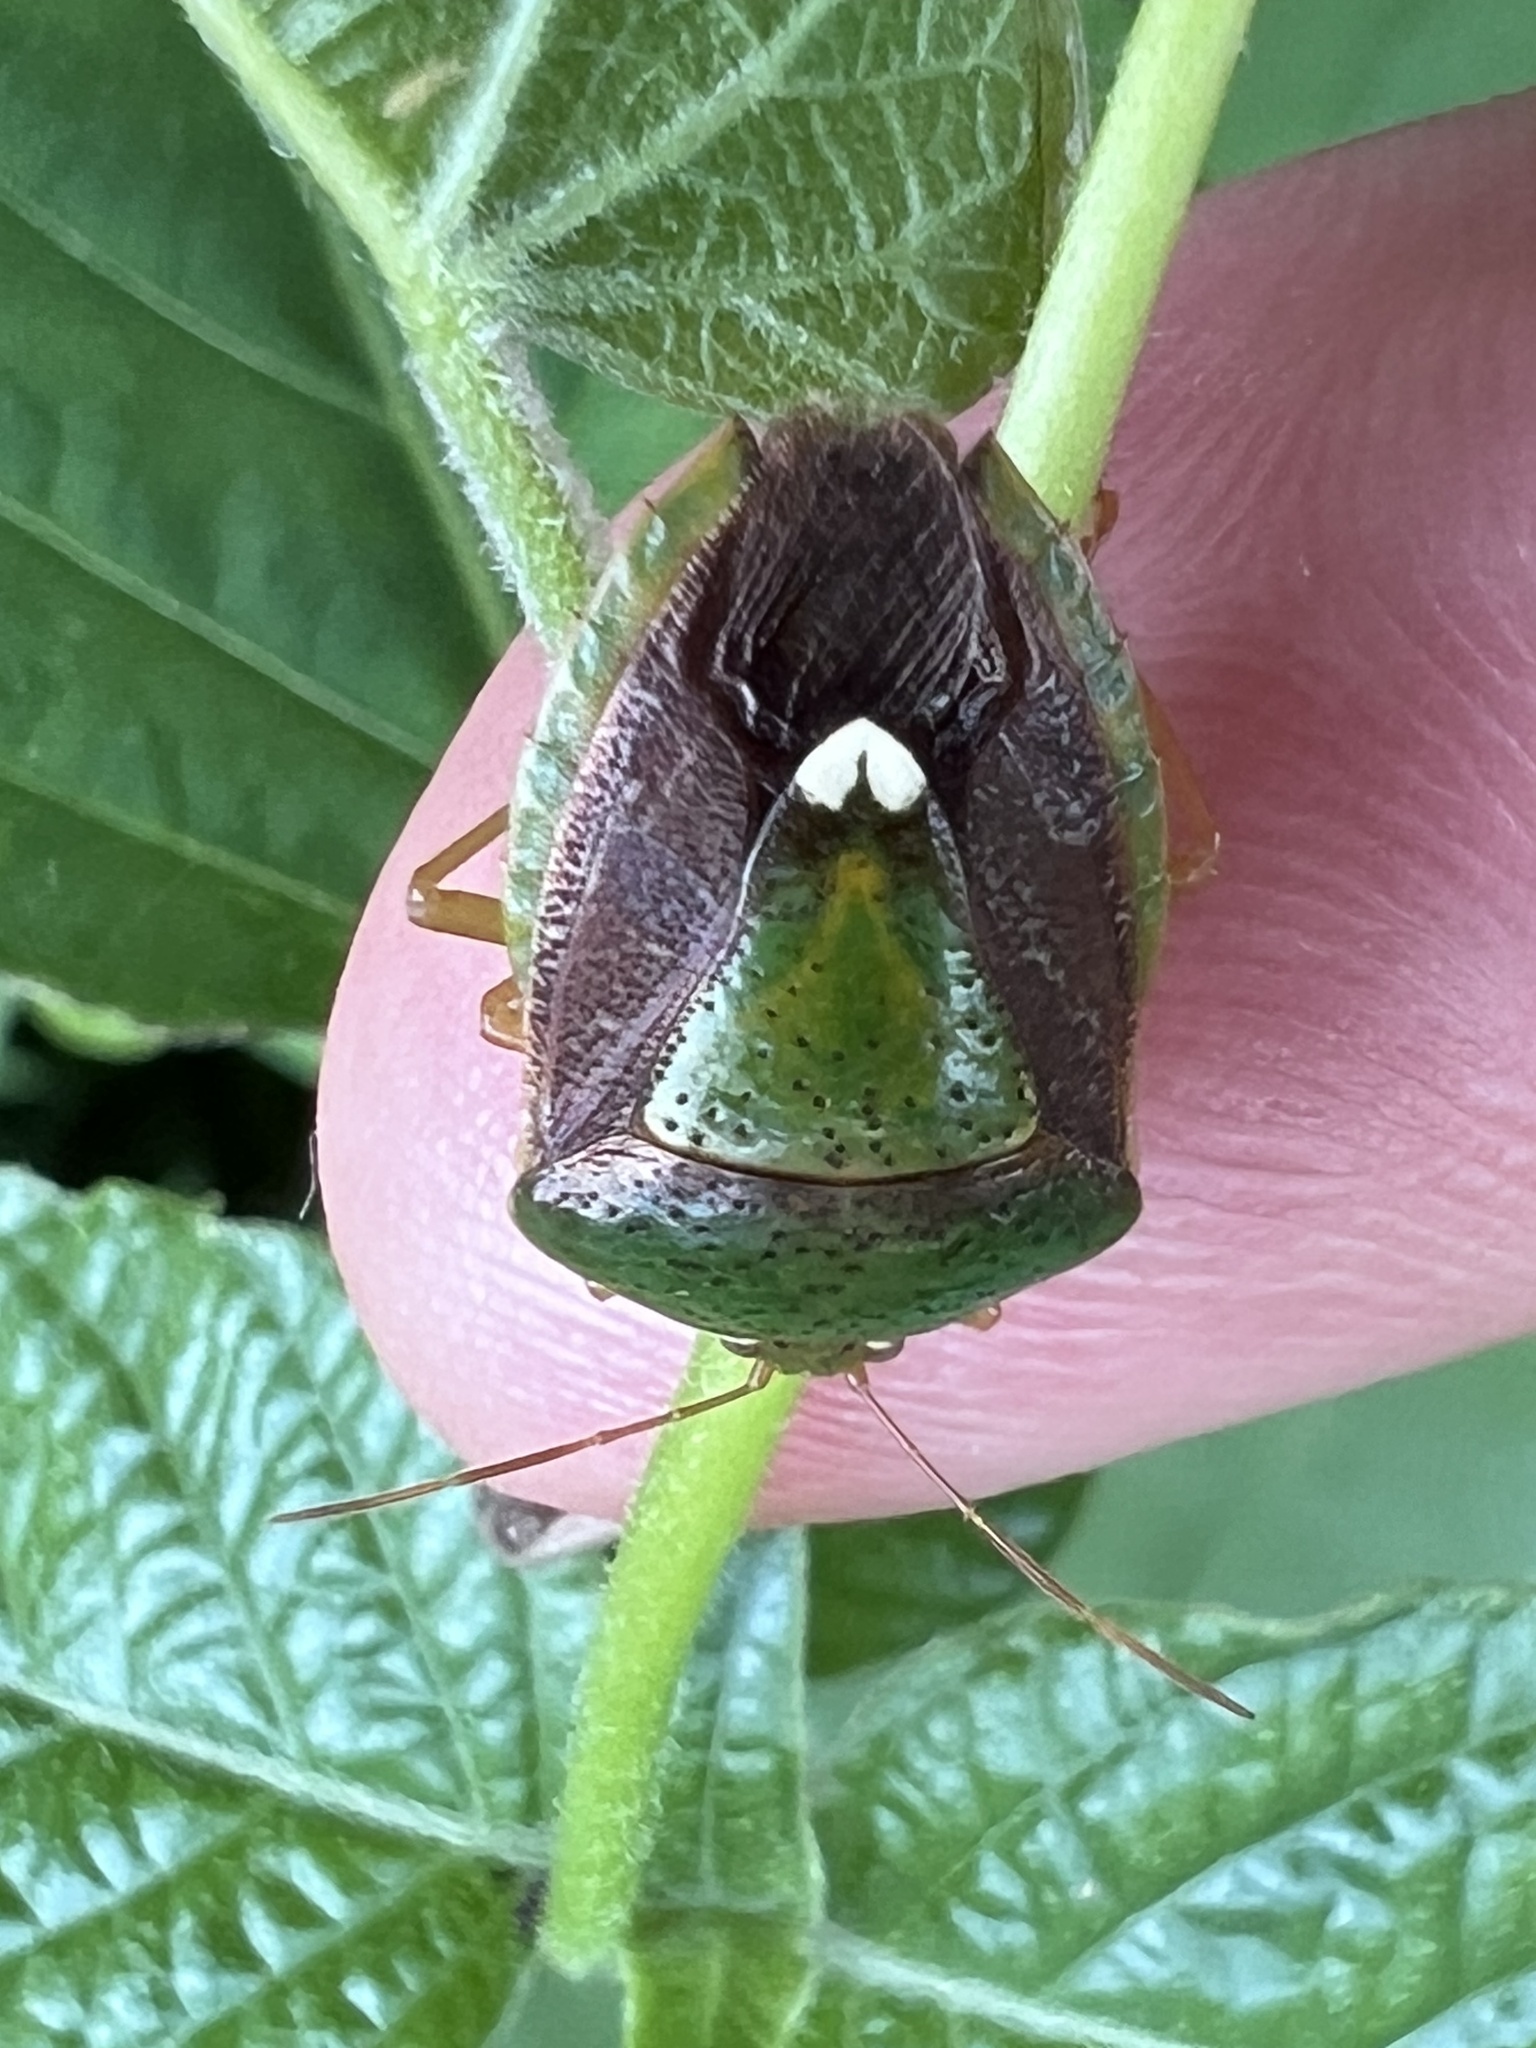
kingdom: Animalia
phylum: Arthropoda
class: Insecta
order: Hemiptera
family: Pentatomidae
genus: Edessa
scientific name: Edessa bifida
